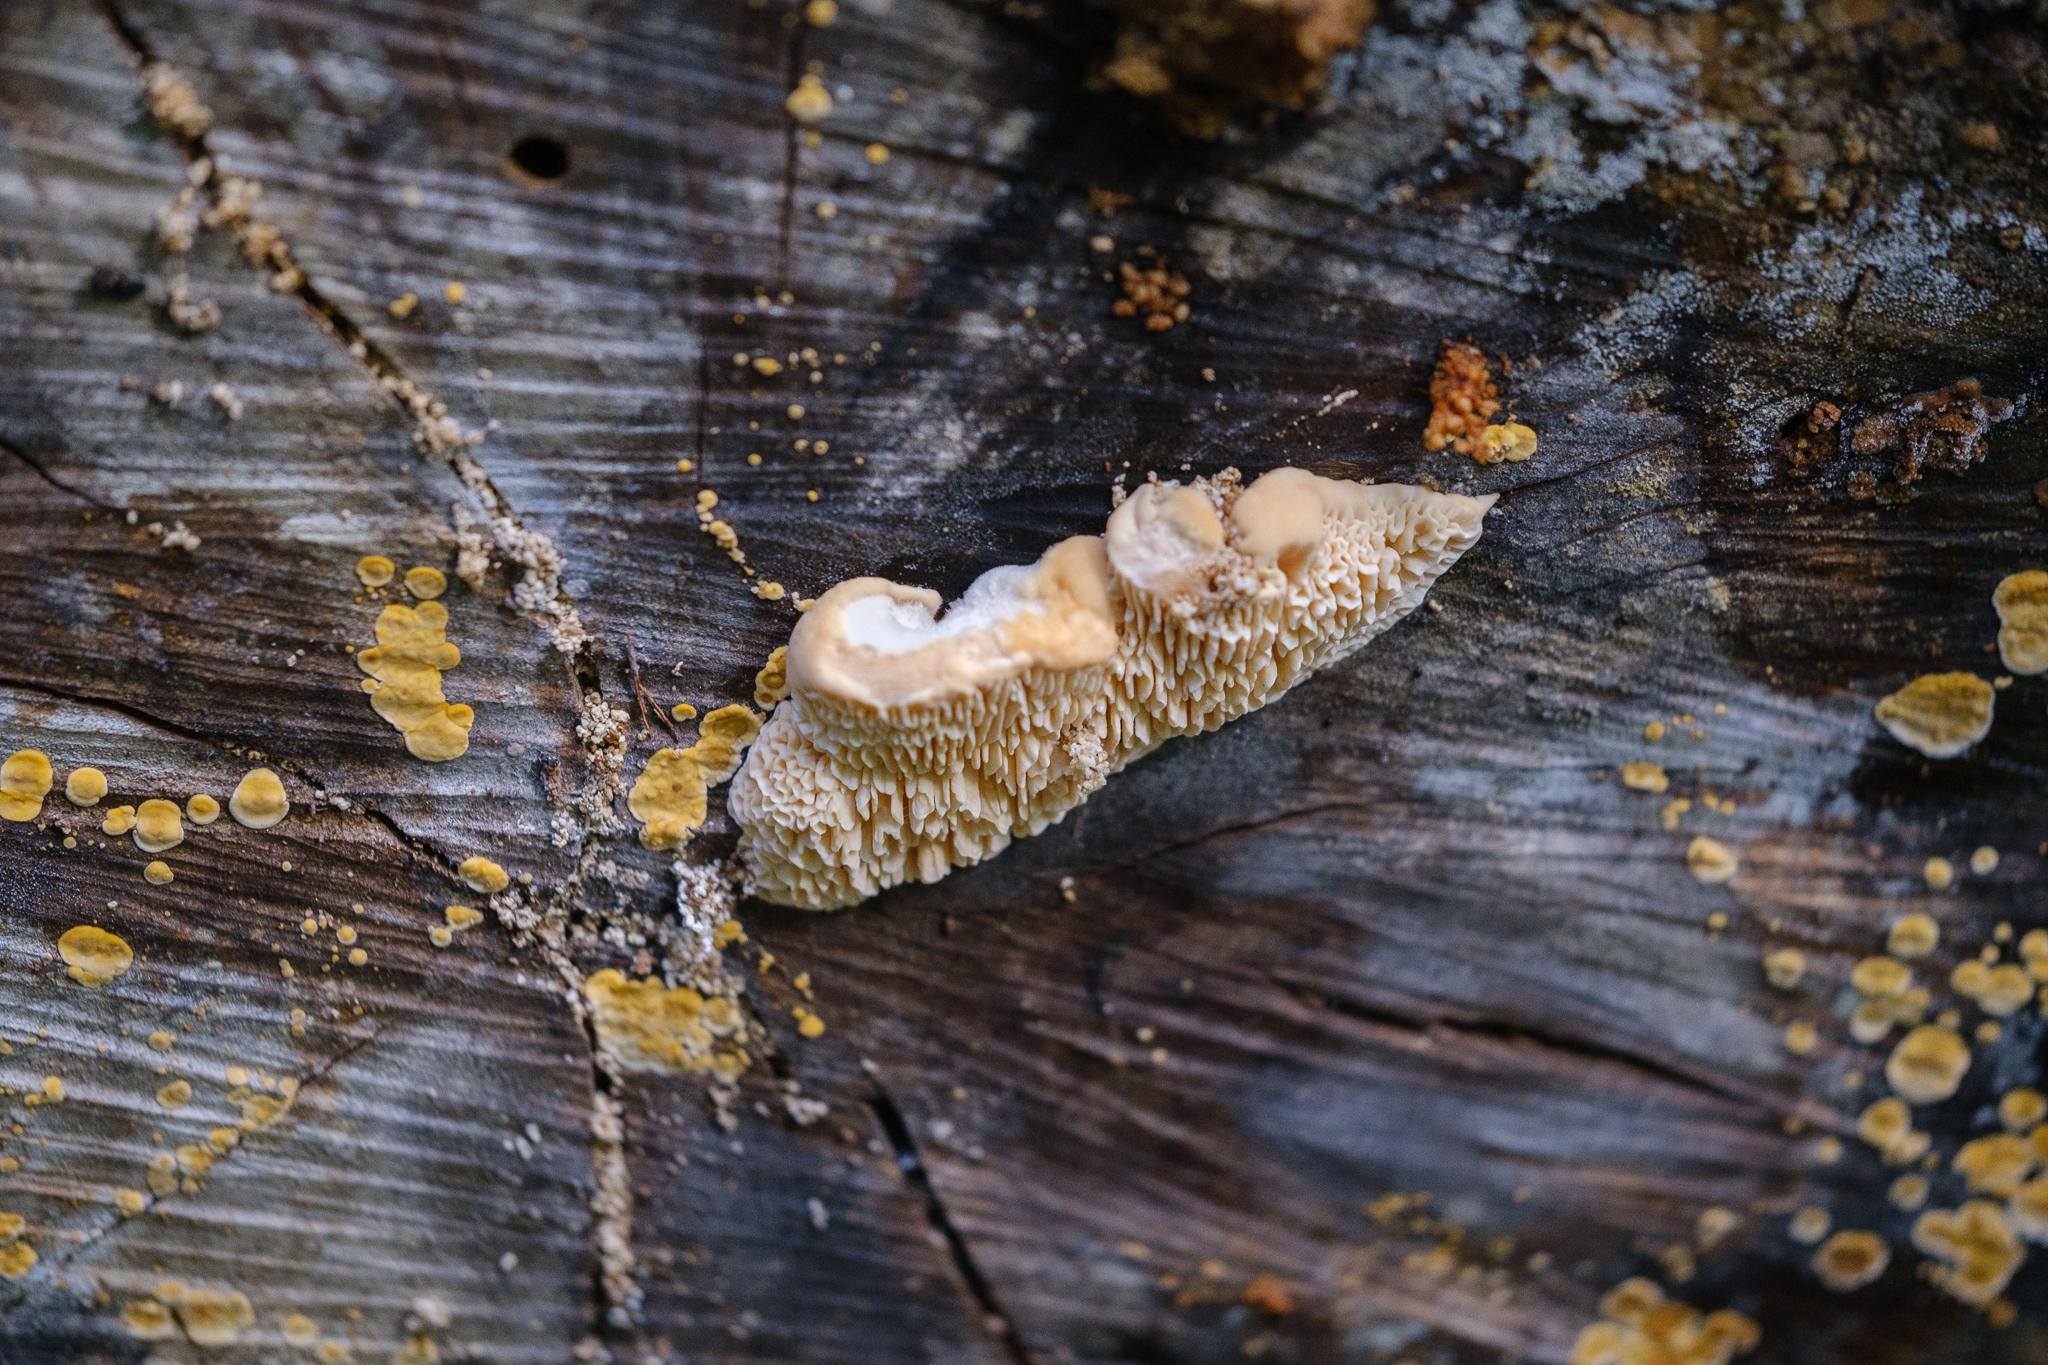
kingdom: Fungi
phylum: Basidiomycota
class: Agaricomycetes
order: Polyporales
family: Polyporaceae
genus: Lenzites
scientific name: Lenzites betulinus
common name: Birch mazegill
